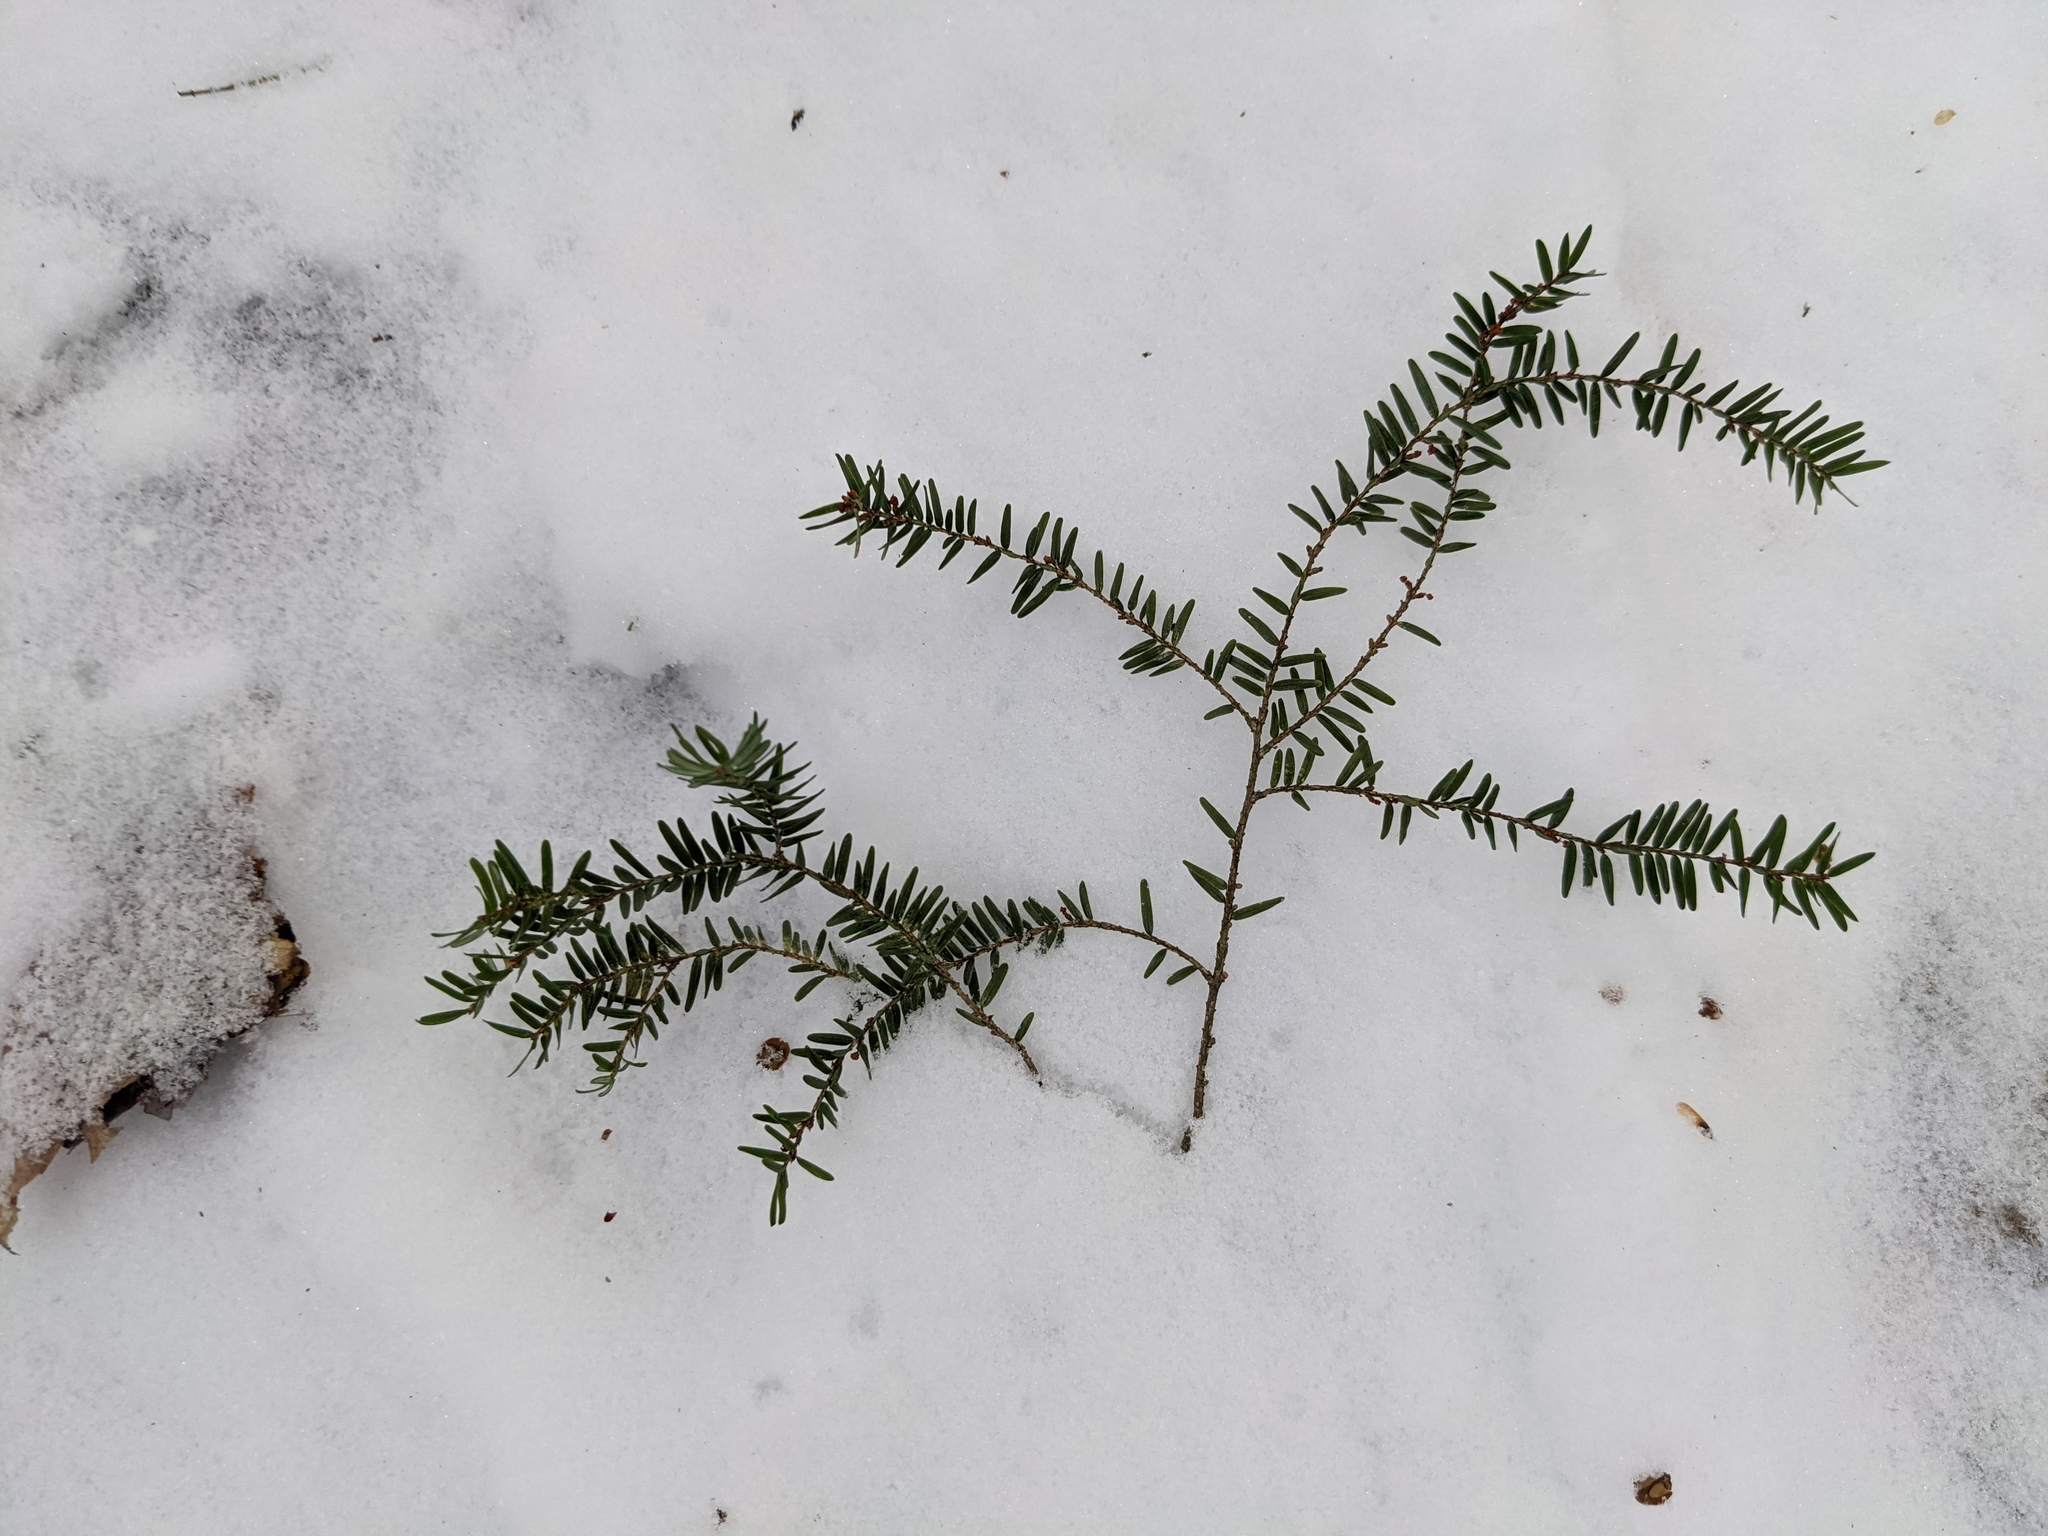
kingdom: Plantae
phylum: Tracheophyta
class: Pinopsida
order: Pinales
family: Pinaceae
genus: Tsuga
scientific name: Tsuga canadensis
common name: Eastern hemlock
